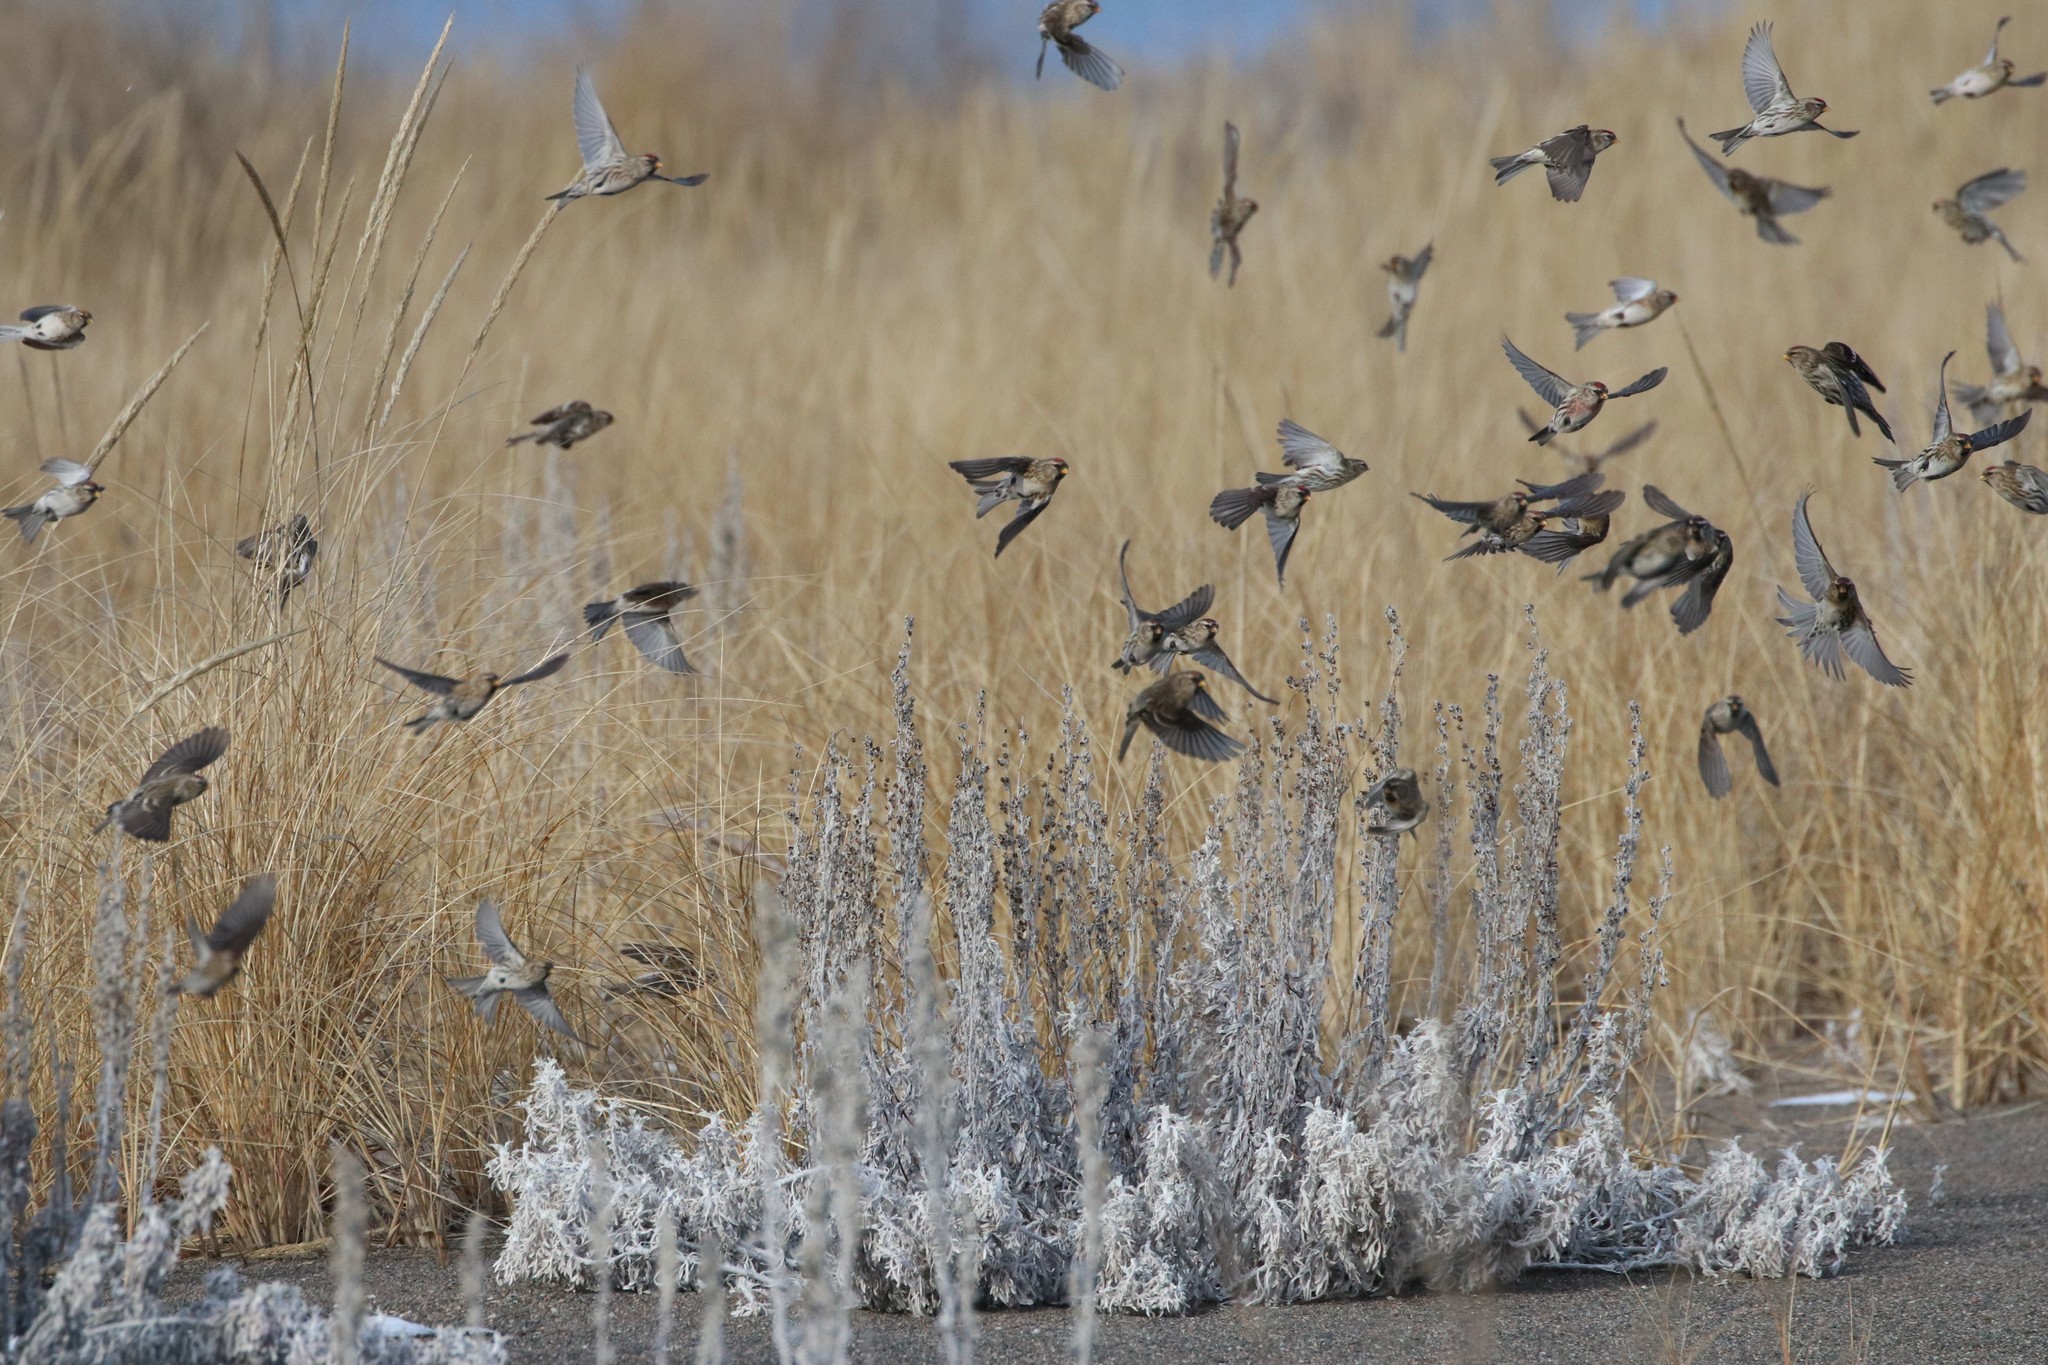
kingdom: Animalia
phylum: Chordata
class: Aves
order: Passeriformes
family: Fringillidae
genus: Acanthis
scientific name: Acanthis flammea
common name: Common redpoll
